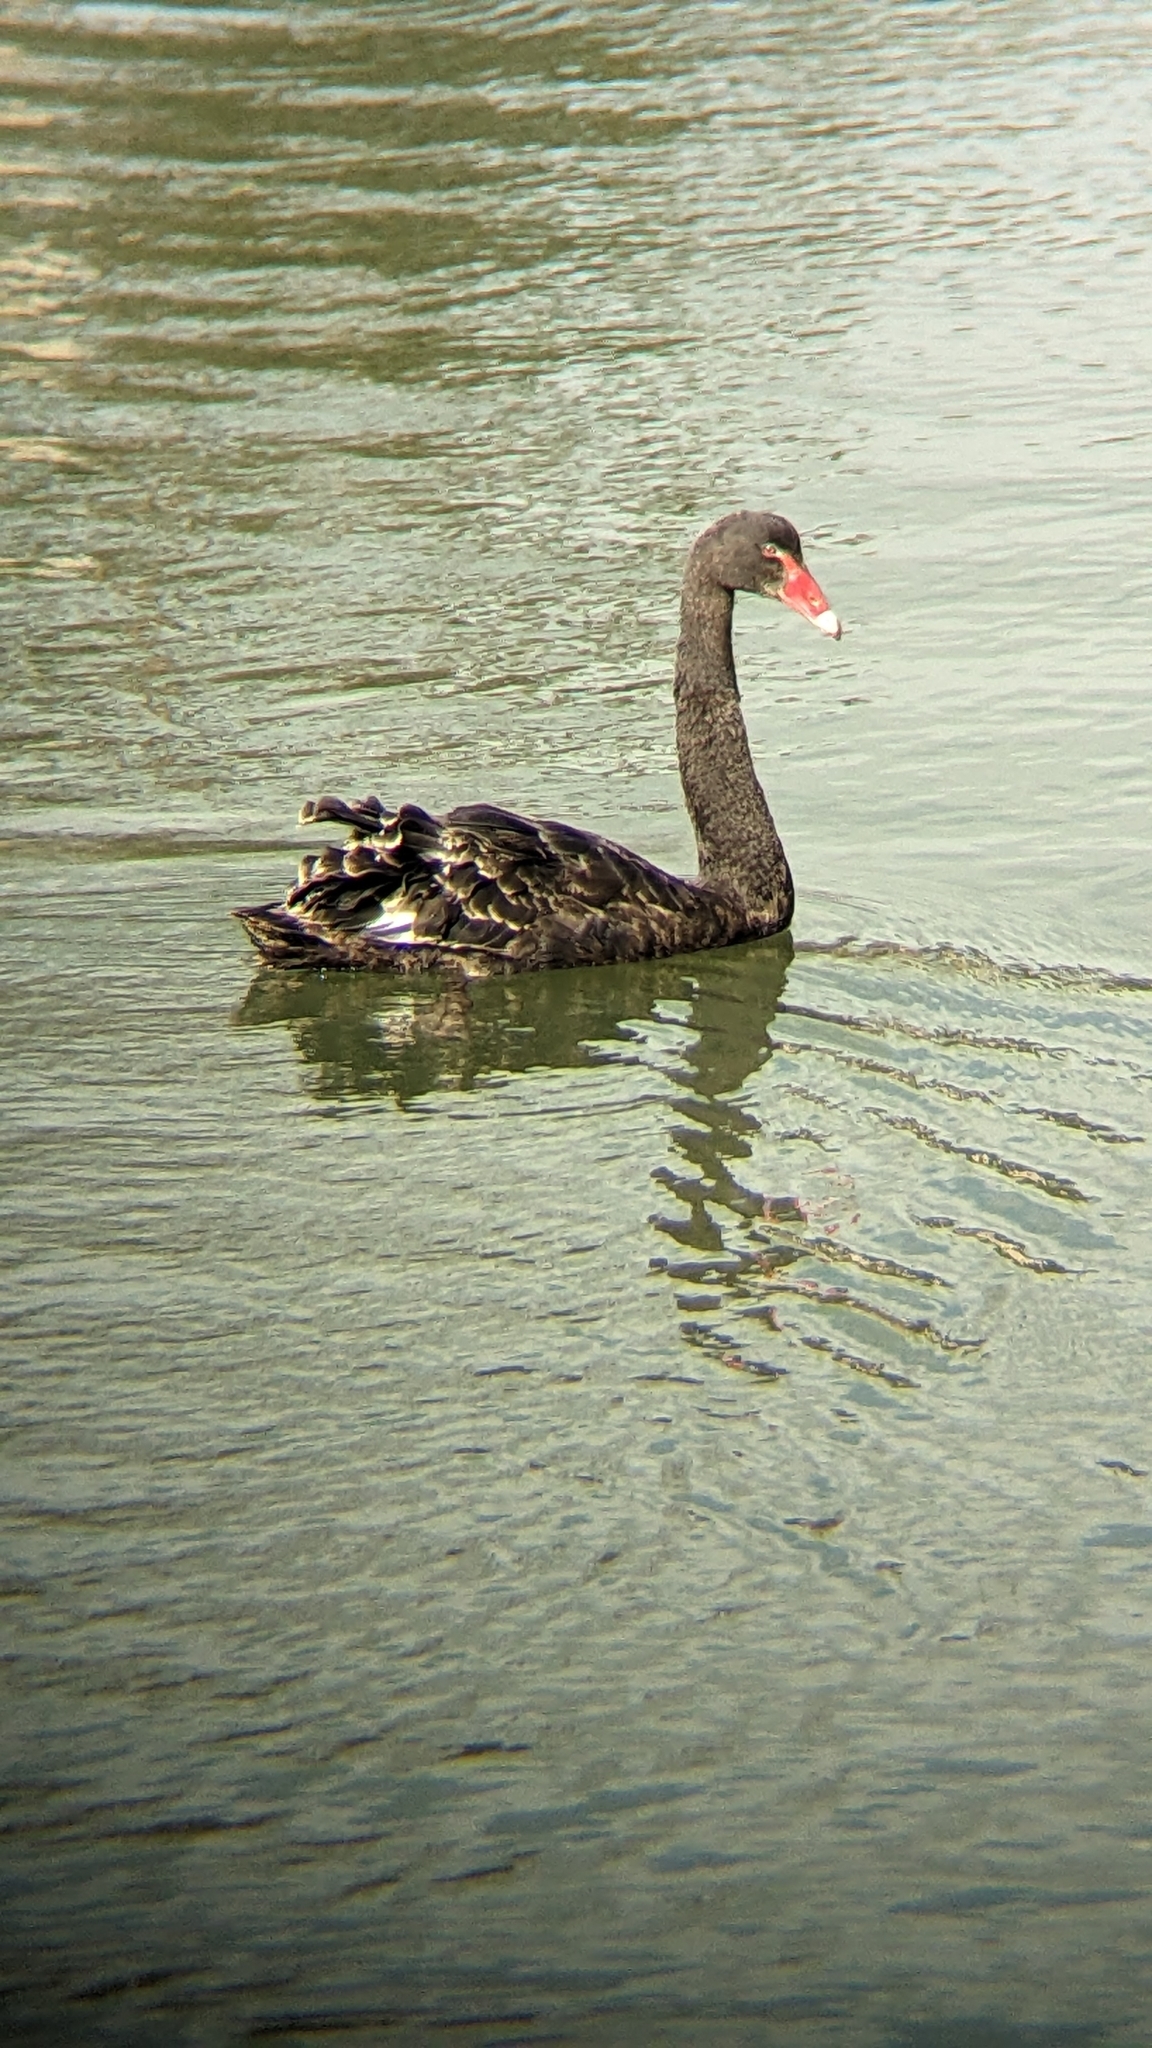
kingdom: Animalia
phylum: Chordata
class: Aves
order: Anseriformes
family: Anatidae
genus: Cygnus
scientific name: Cygnus atratus
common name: Black swan
